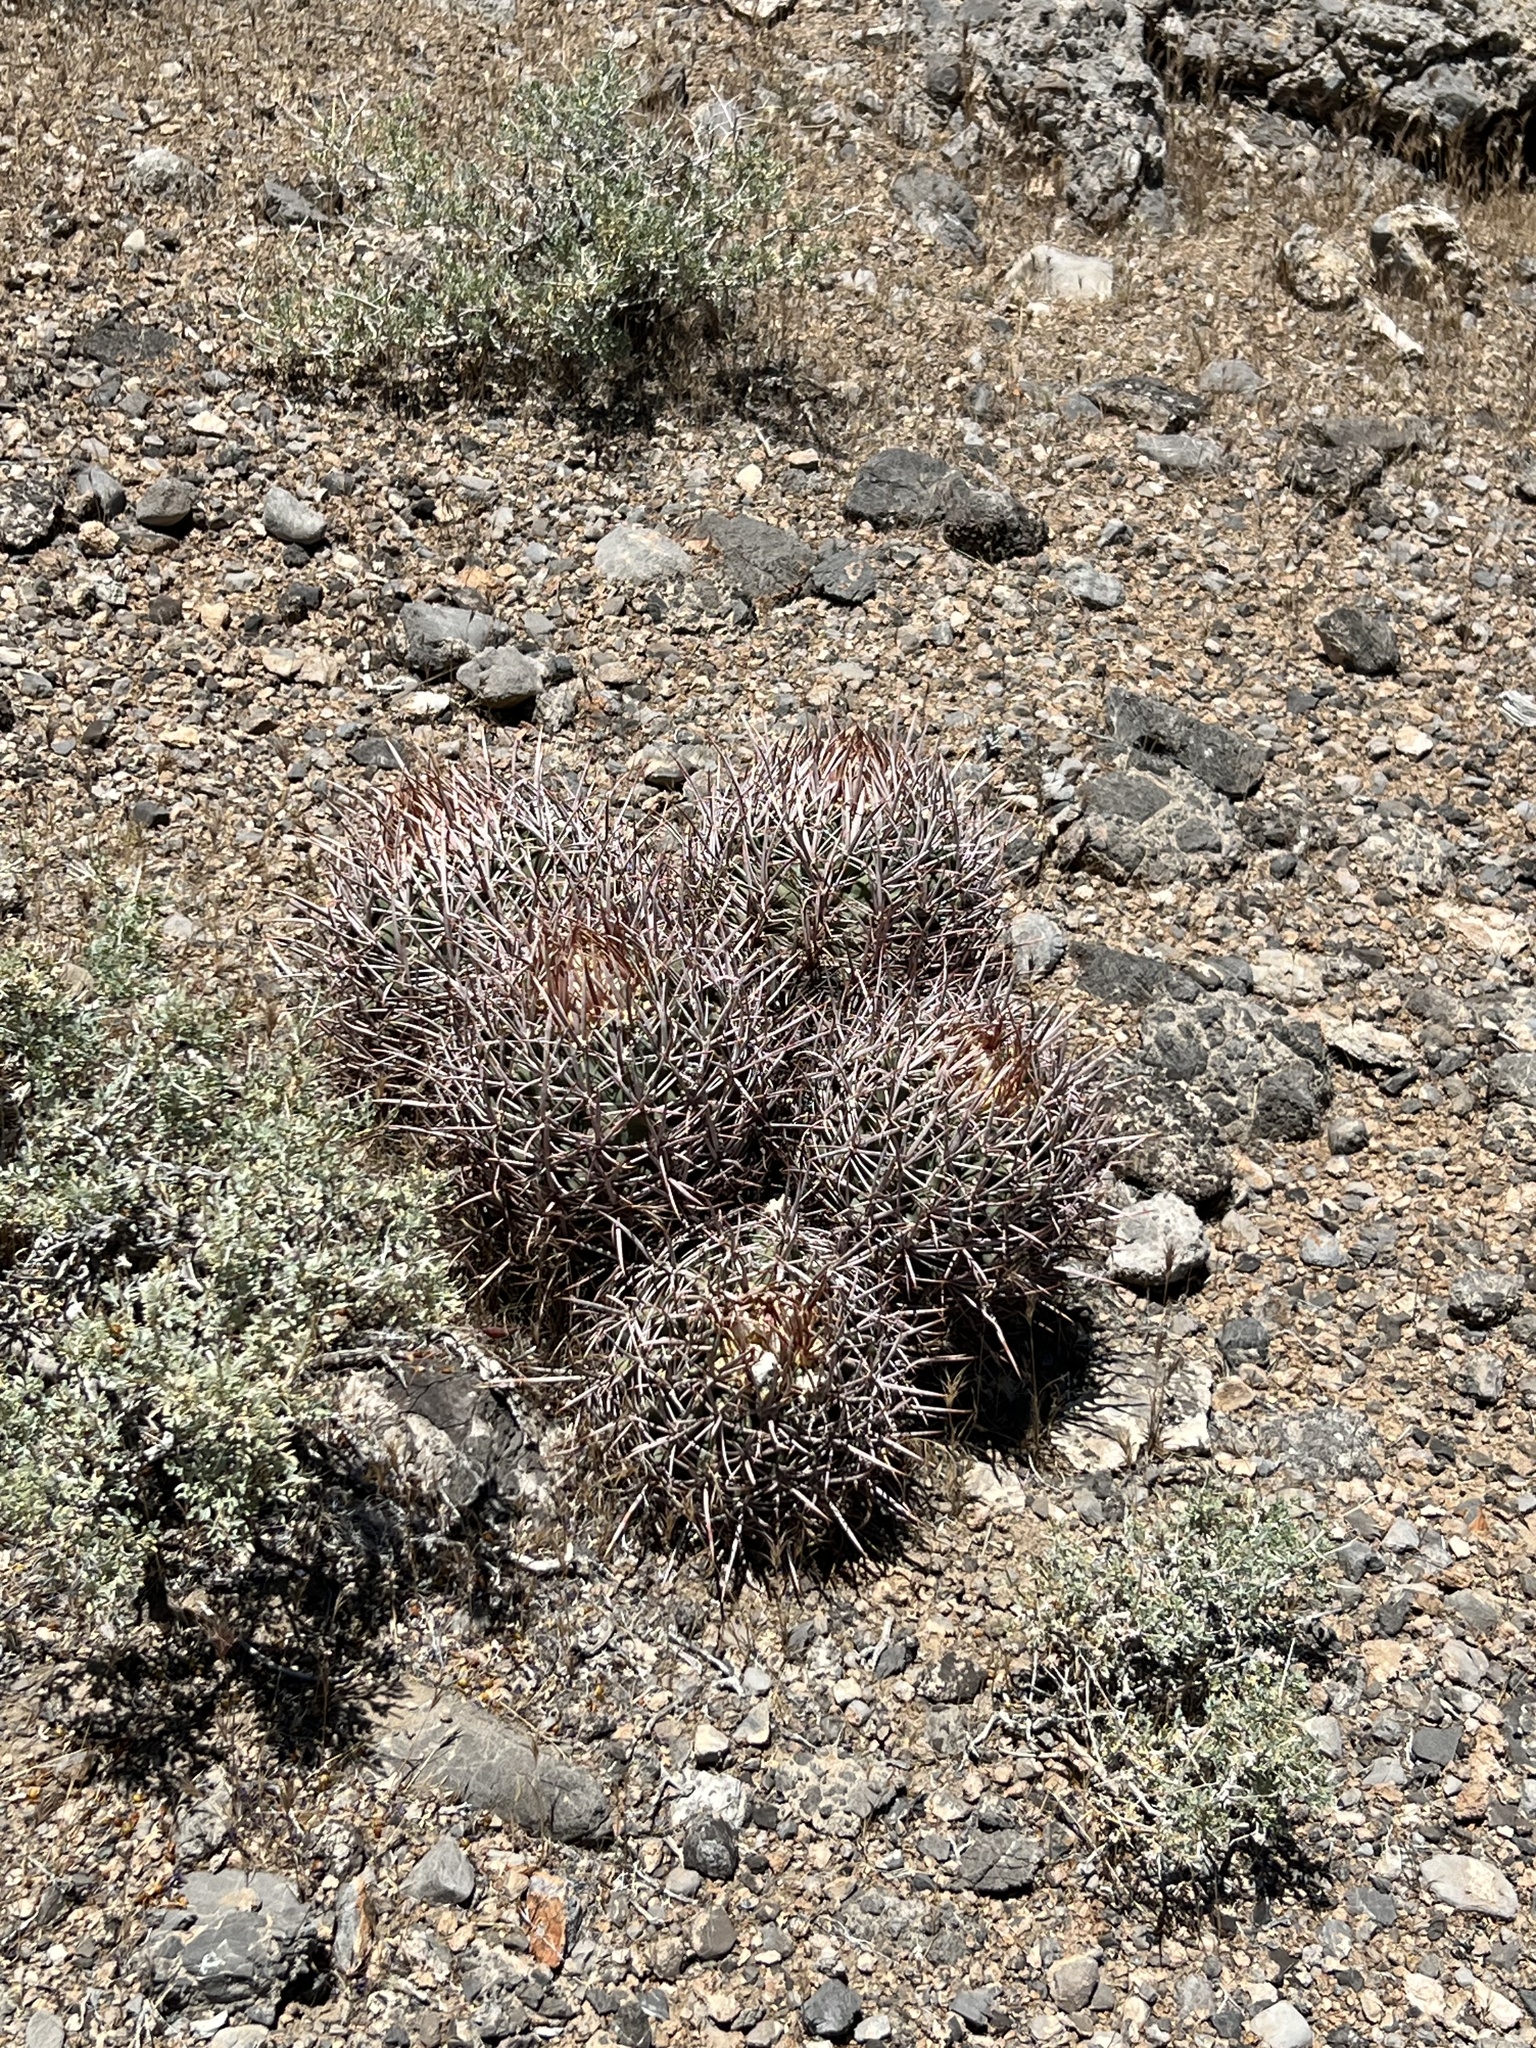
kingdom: Plantae
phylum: Tracheophyta
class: Magnoliopsida
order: Caryophyllales
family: Cactaceae
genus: Echinocactus
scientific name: Echinocactus polycephalus
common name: Cottontop cactus
